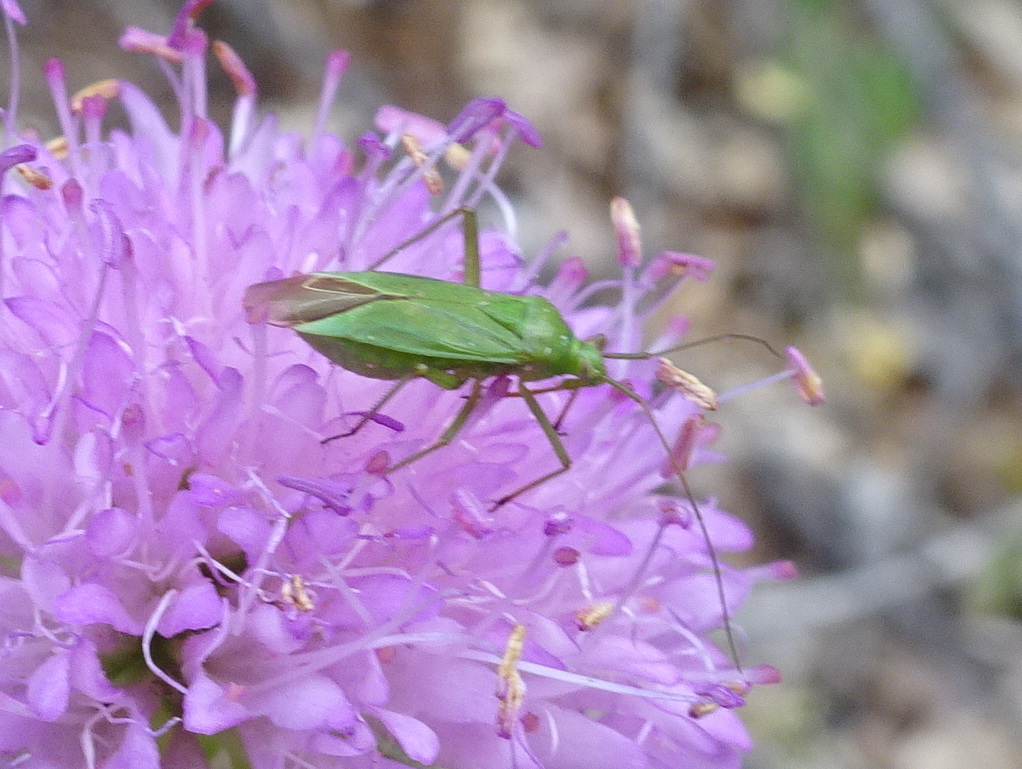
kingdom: Animalia
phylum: Arthropoda
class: Insecta
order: Hemiptera
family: Miridae
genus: Calocoris
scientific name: Calocoris affinis
